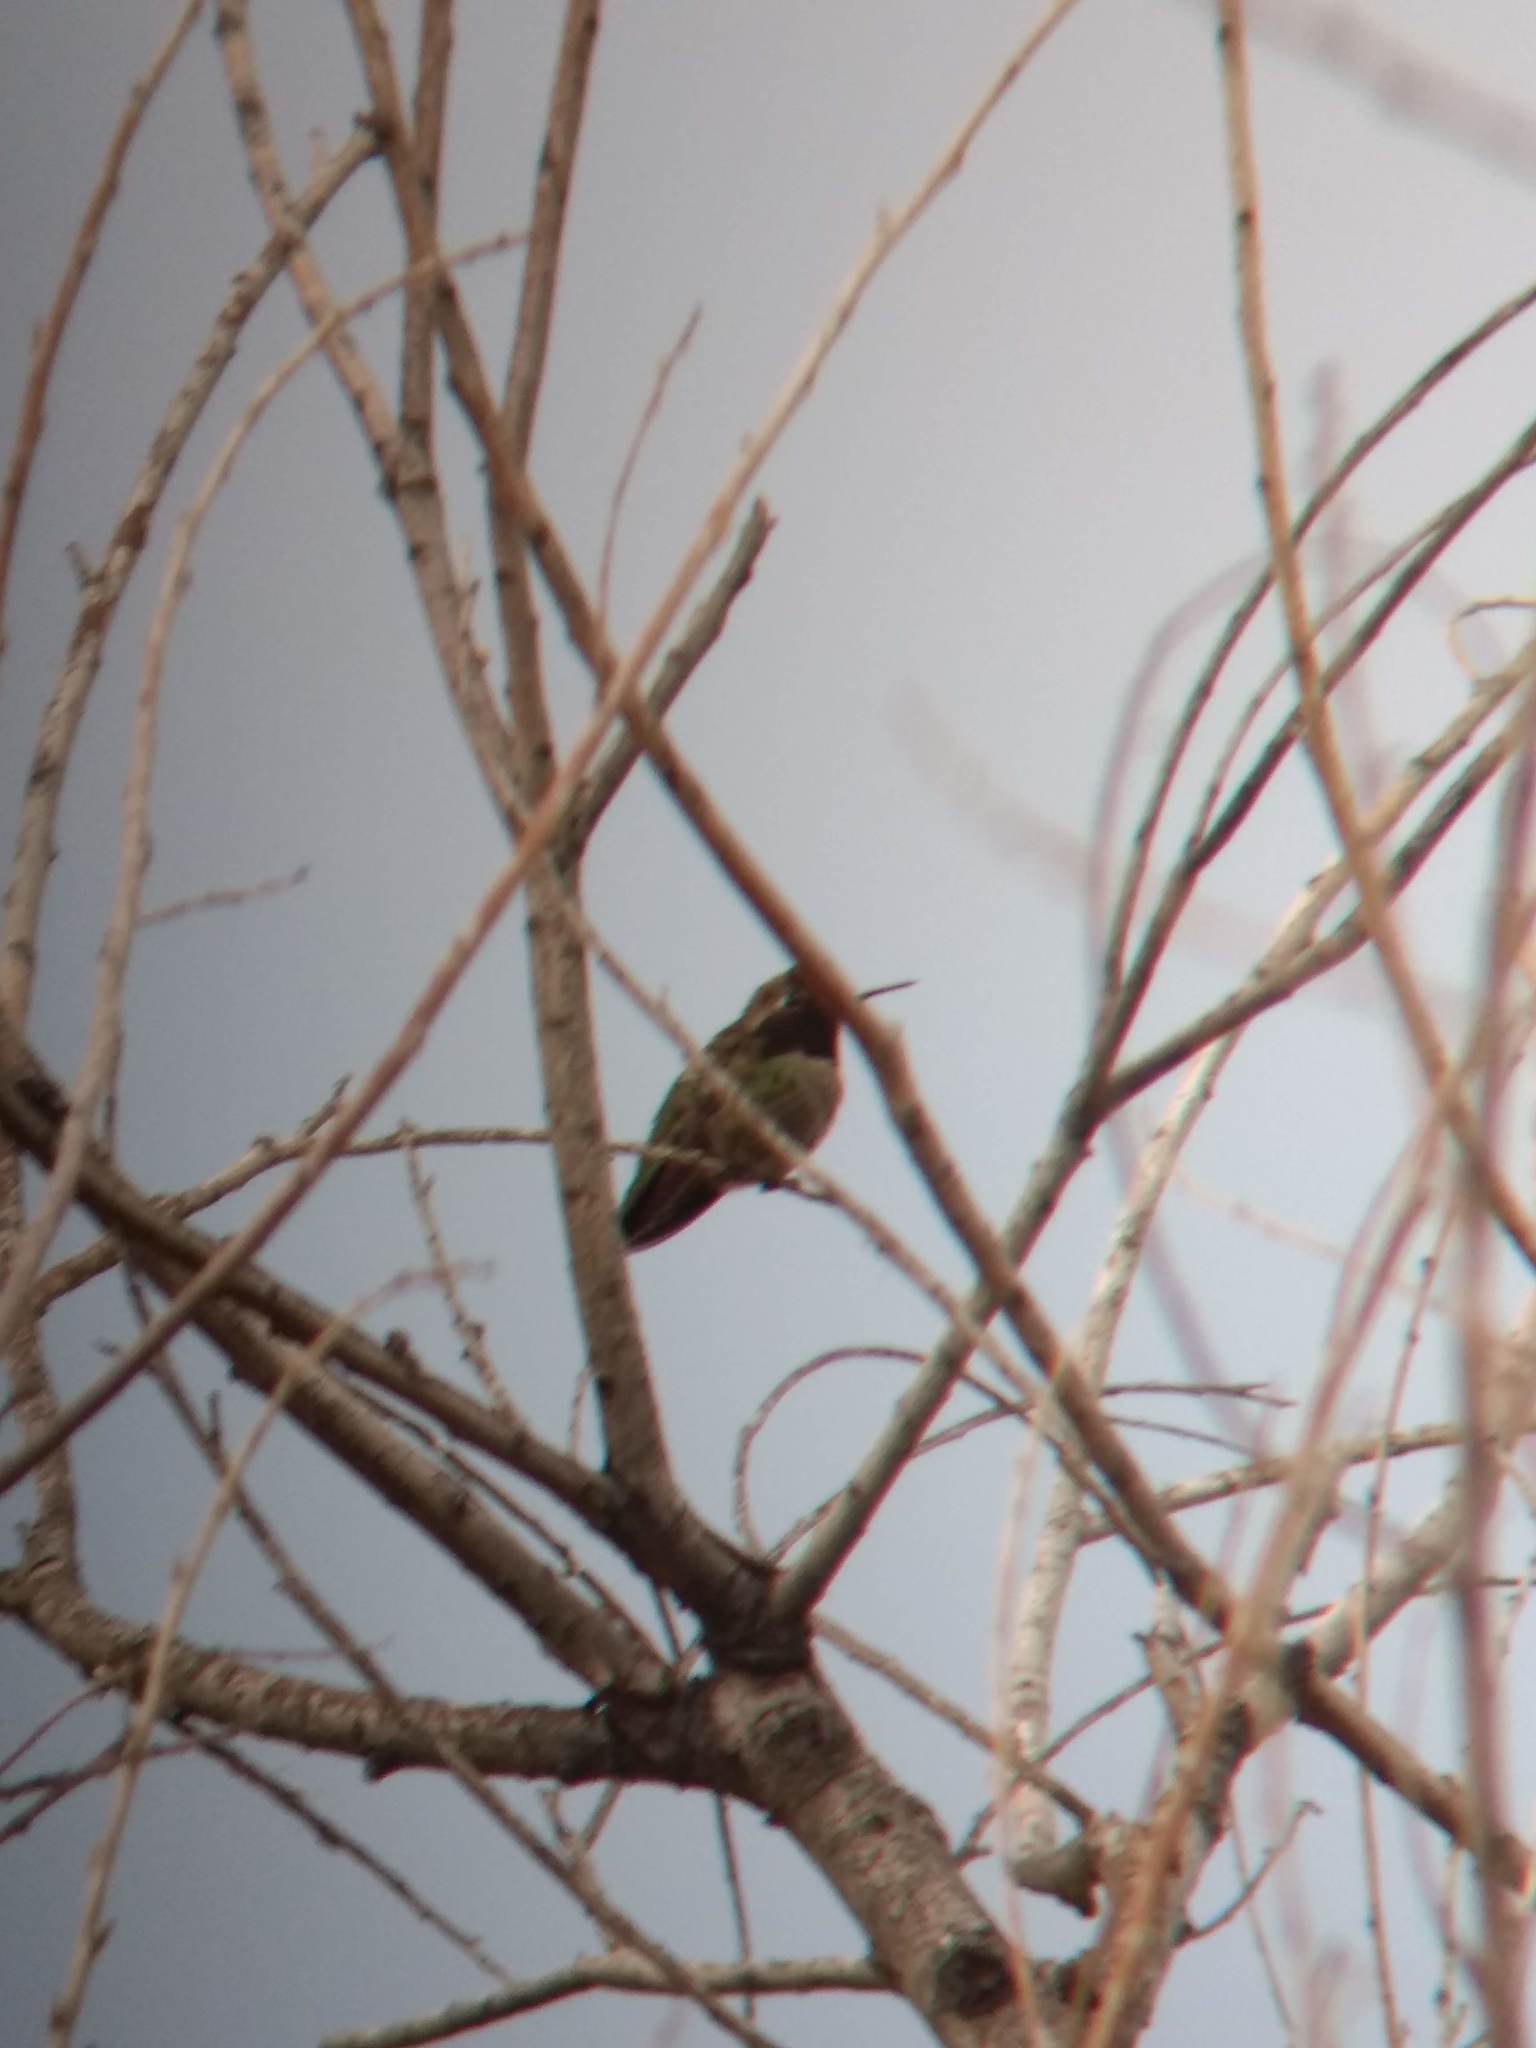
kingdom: Animalia
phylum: Chordata
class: Aves
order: Apodiformes
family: Trochilidae
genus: Calypte
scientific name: Calypte anna
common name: Anna's hummingbird
